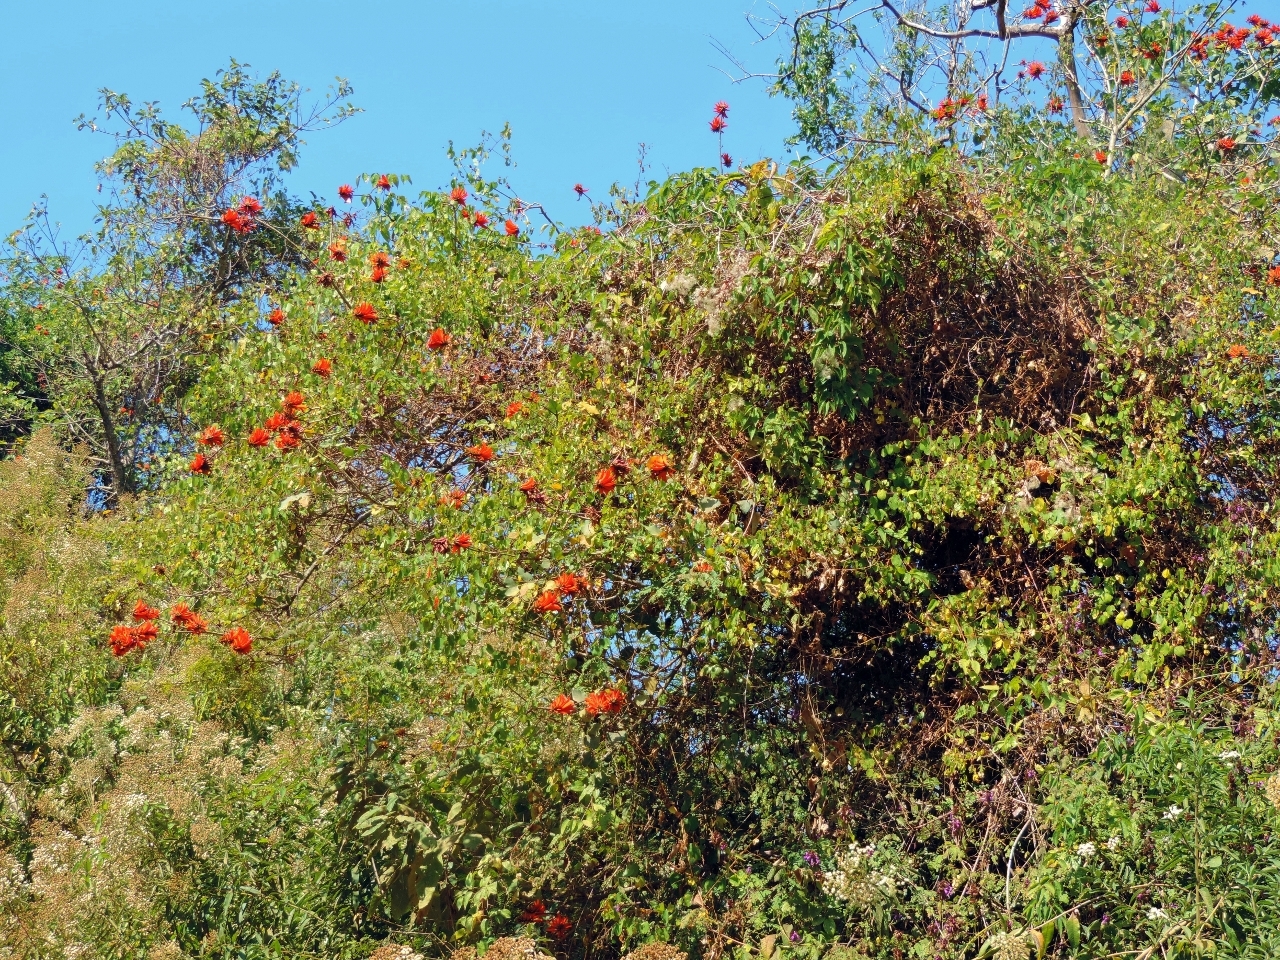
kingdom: Plantae
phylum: Tracheophyta
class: Magnoliopsida
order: Fabales
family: Fabaceae
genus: Erythrina
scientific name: Erythrina lysistemon
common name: Common coral tree
